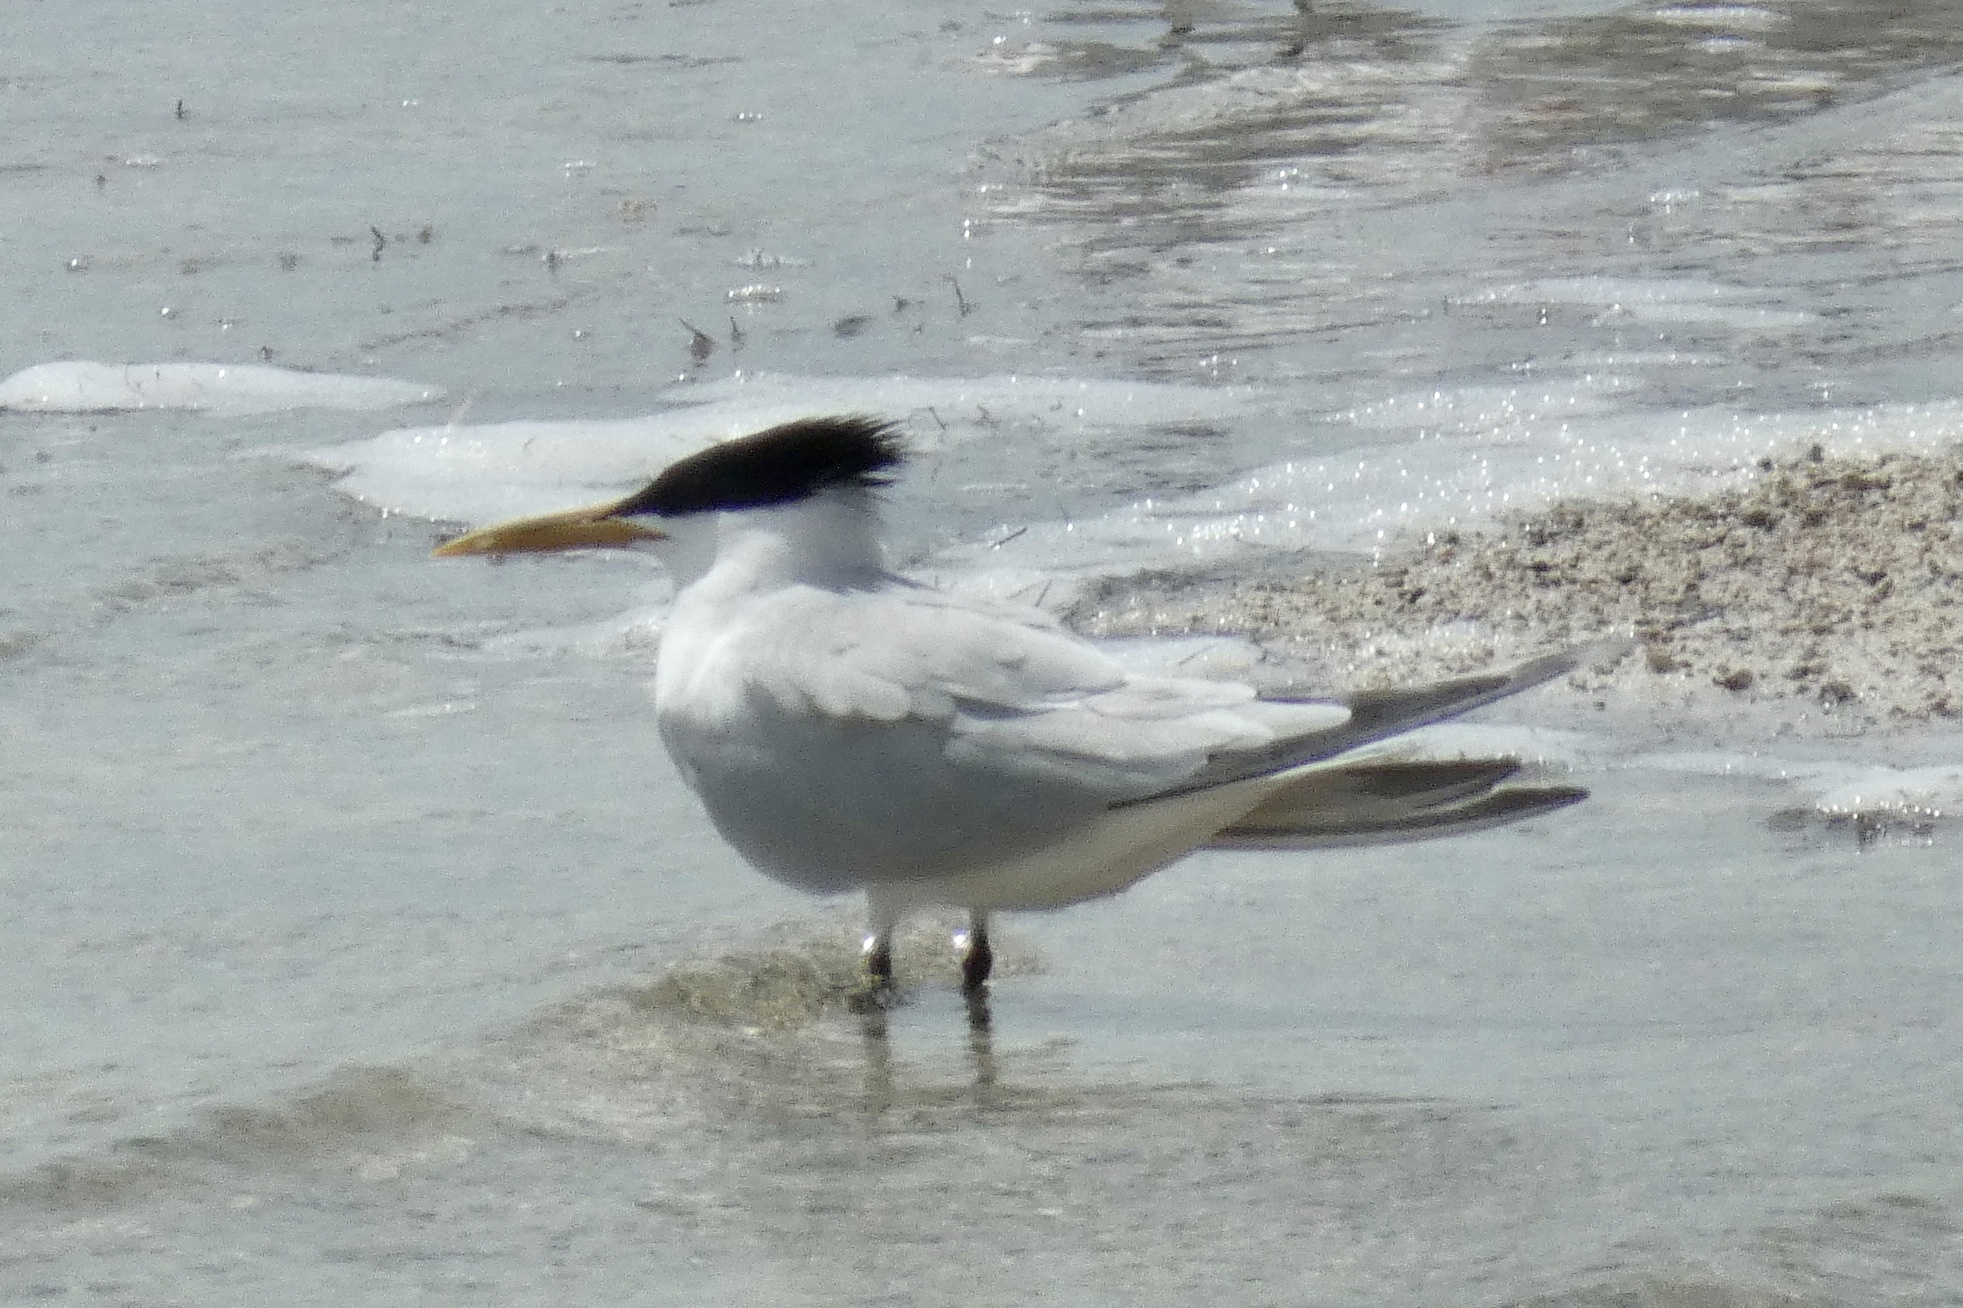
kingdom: Animalia
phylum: Chordata
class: Aves
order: Charadriiformes
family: Laridae
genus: Thalasseus
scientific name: Thalasseus sandvicensis
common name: Sandwich tern
